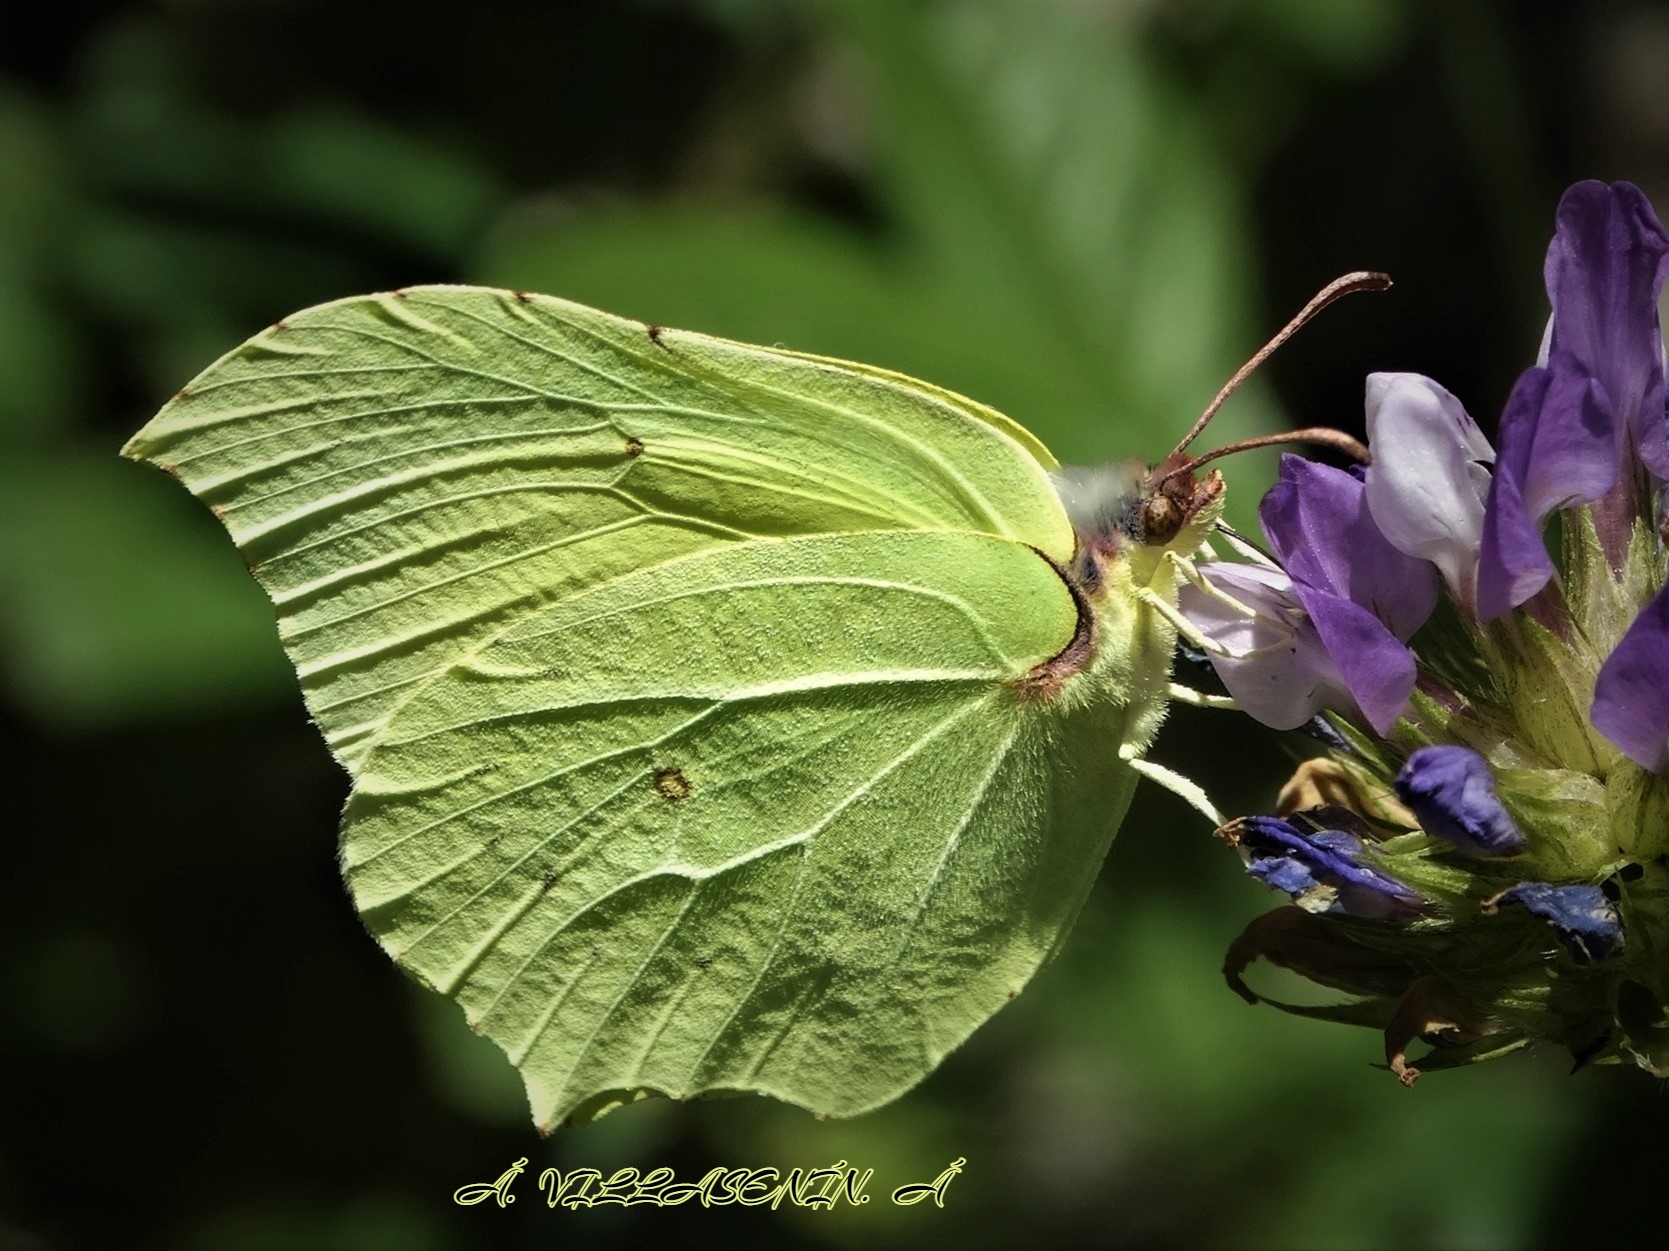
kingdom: Animalia
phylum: Arthropoda
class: Insecta
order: Lepidoptera
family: Pieridae
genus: Gonepteryx
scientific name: Gonepteryx rhamni
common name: Brimstone
